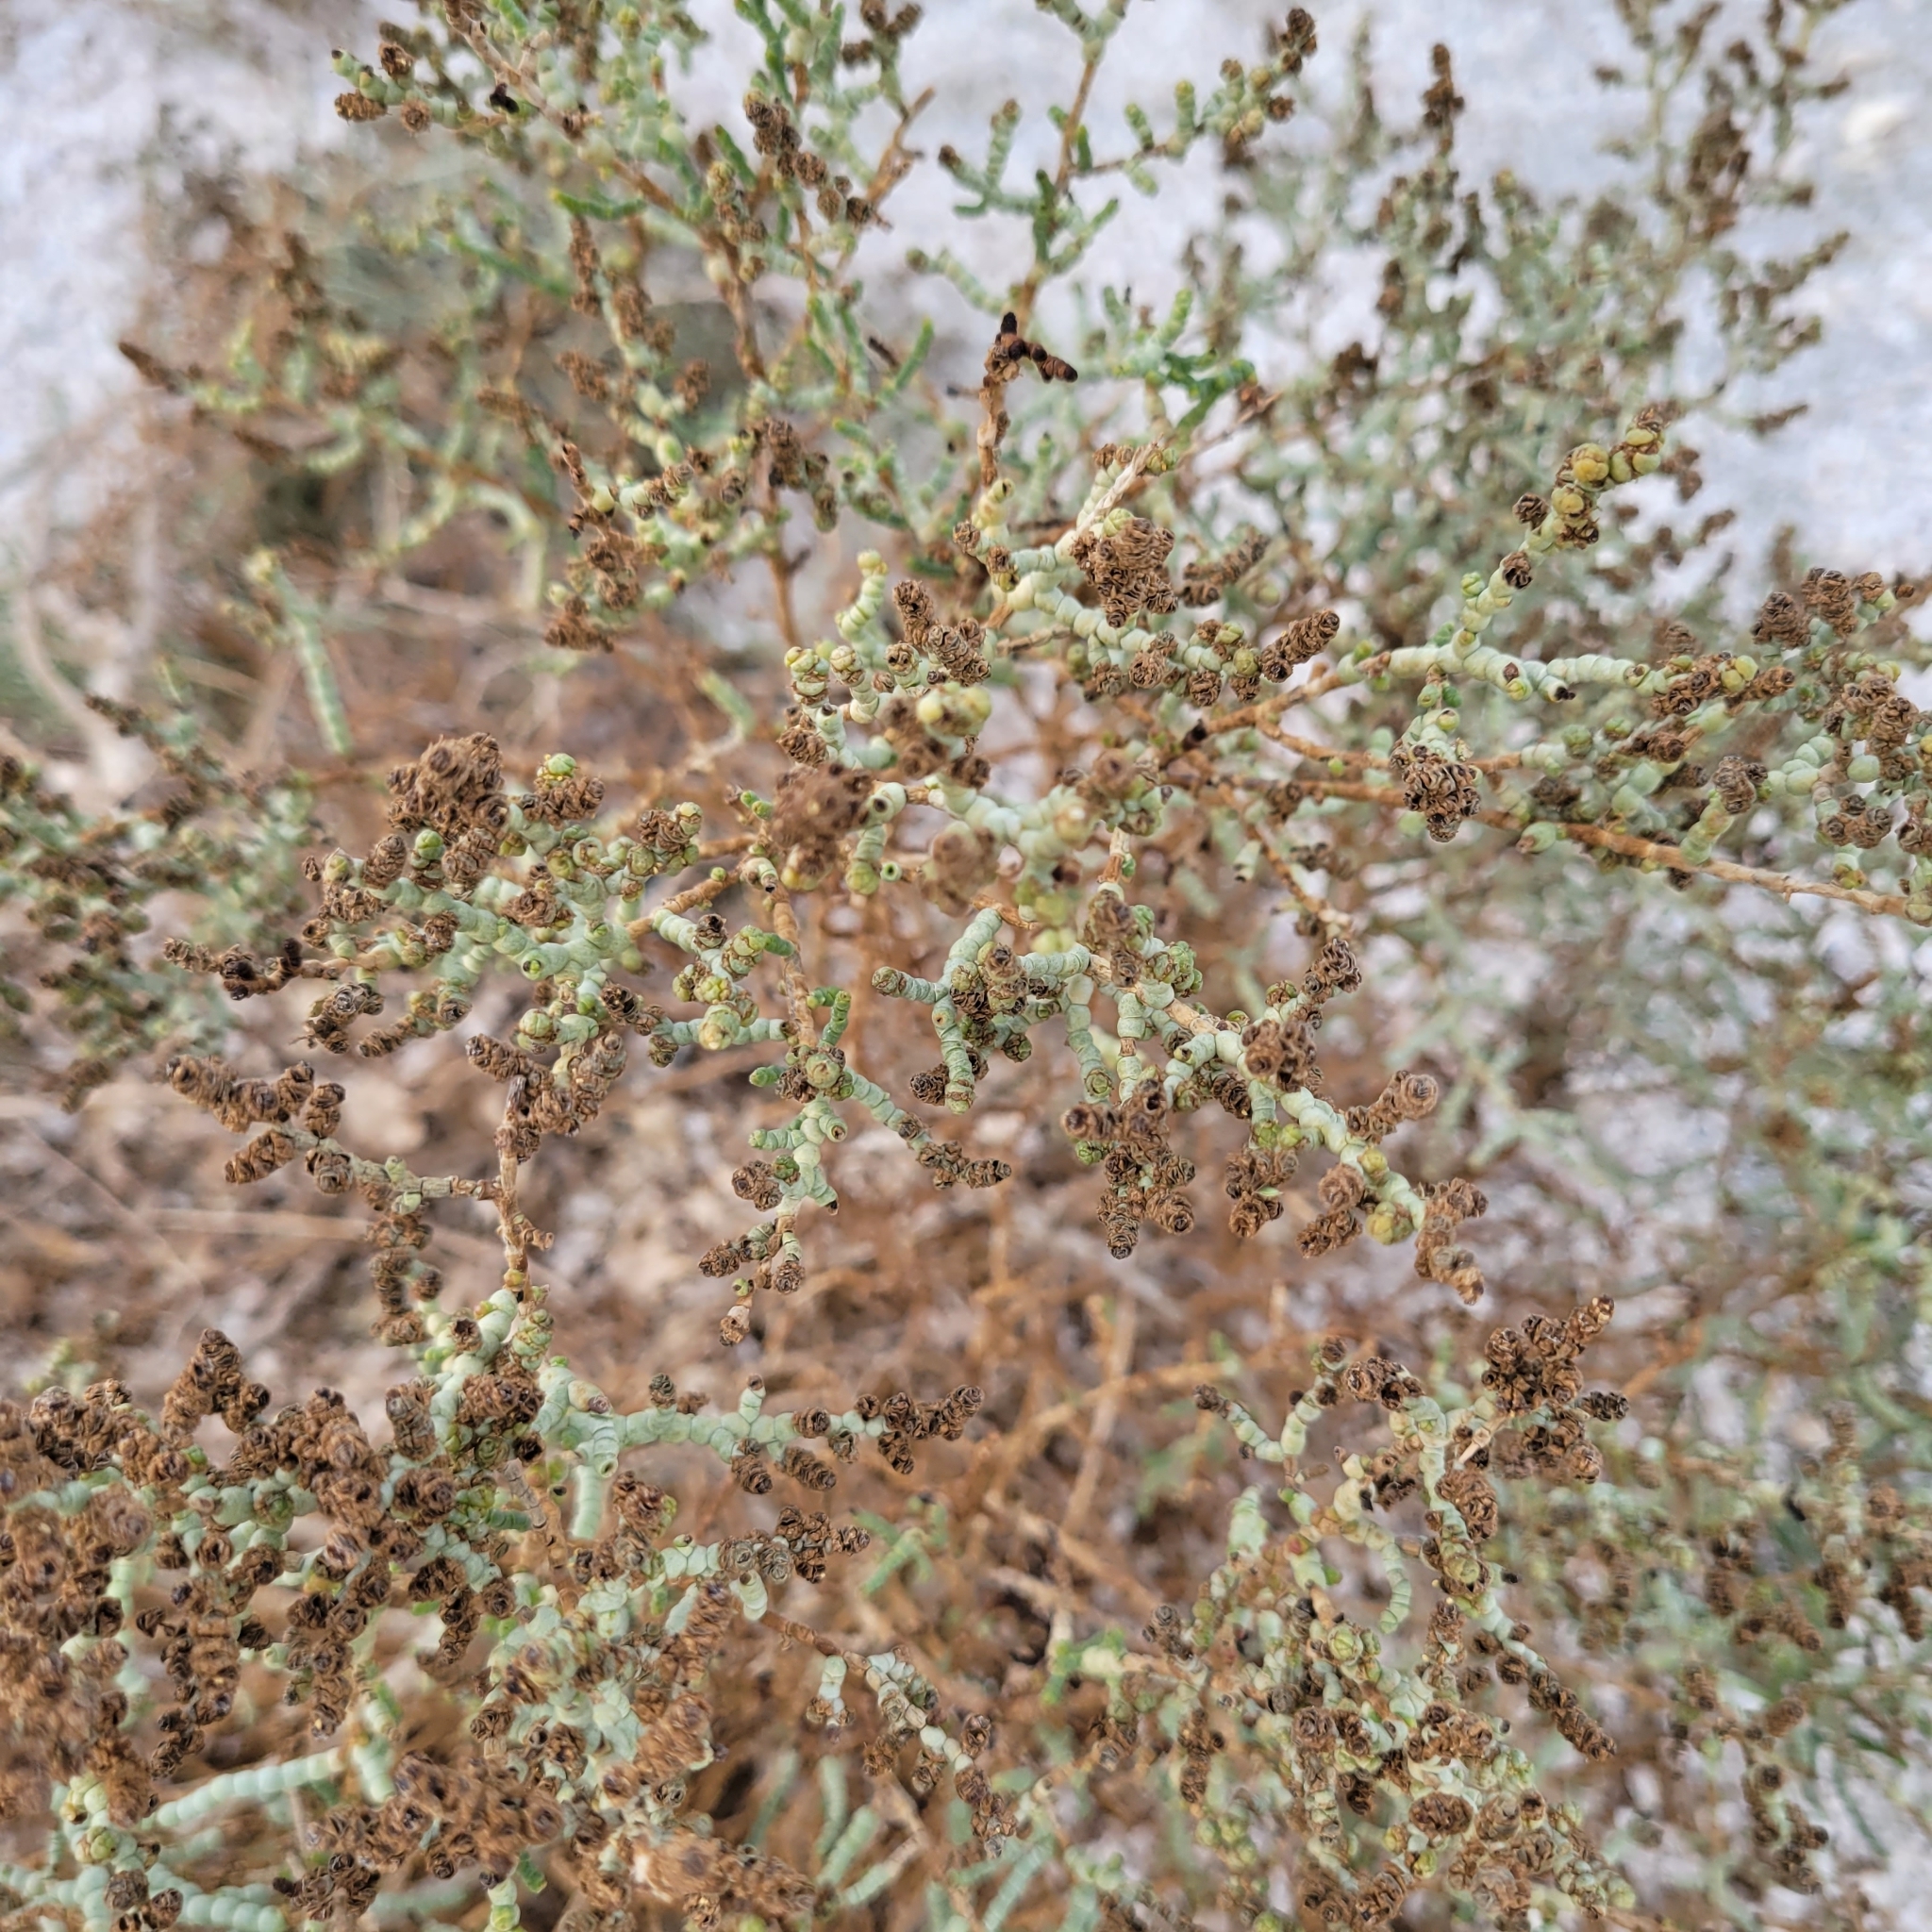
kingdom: Plantae
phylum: Tracheophyta
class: Magnoliopsida
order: Caryophyllales
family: Amaranthaceae
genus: Allenrolfea
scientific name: Allenrolfea occidentalis
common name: Iodine-bush
